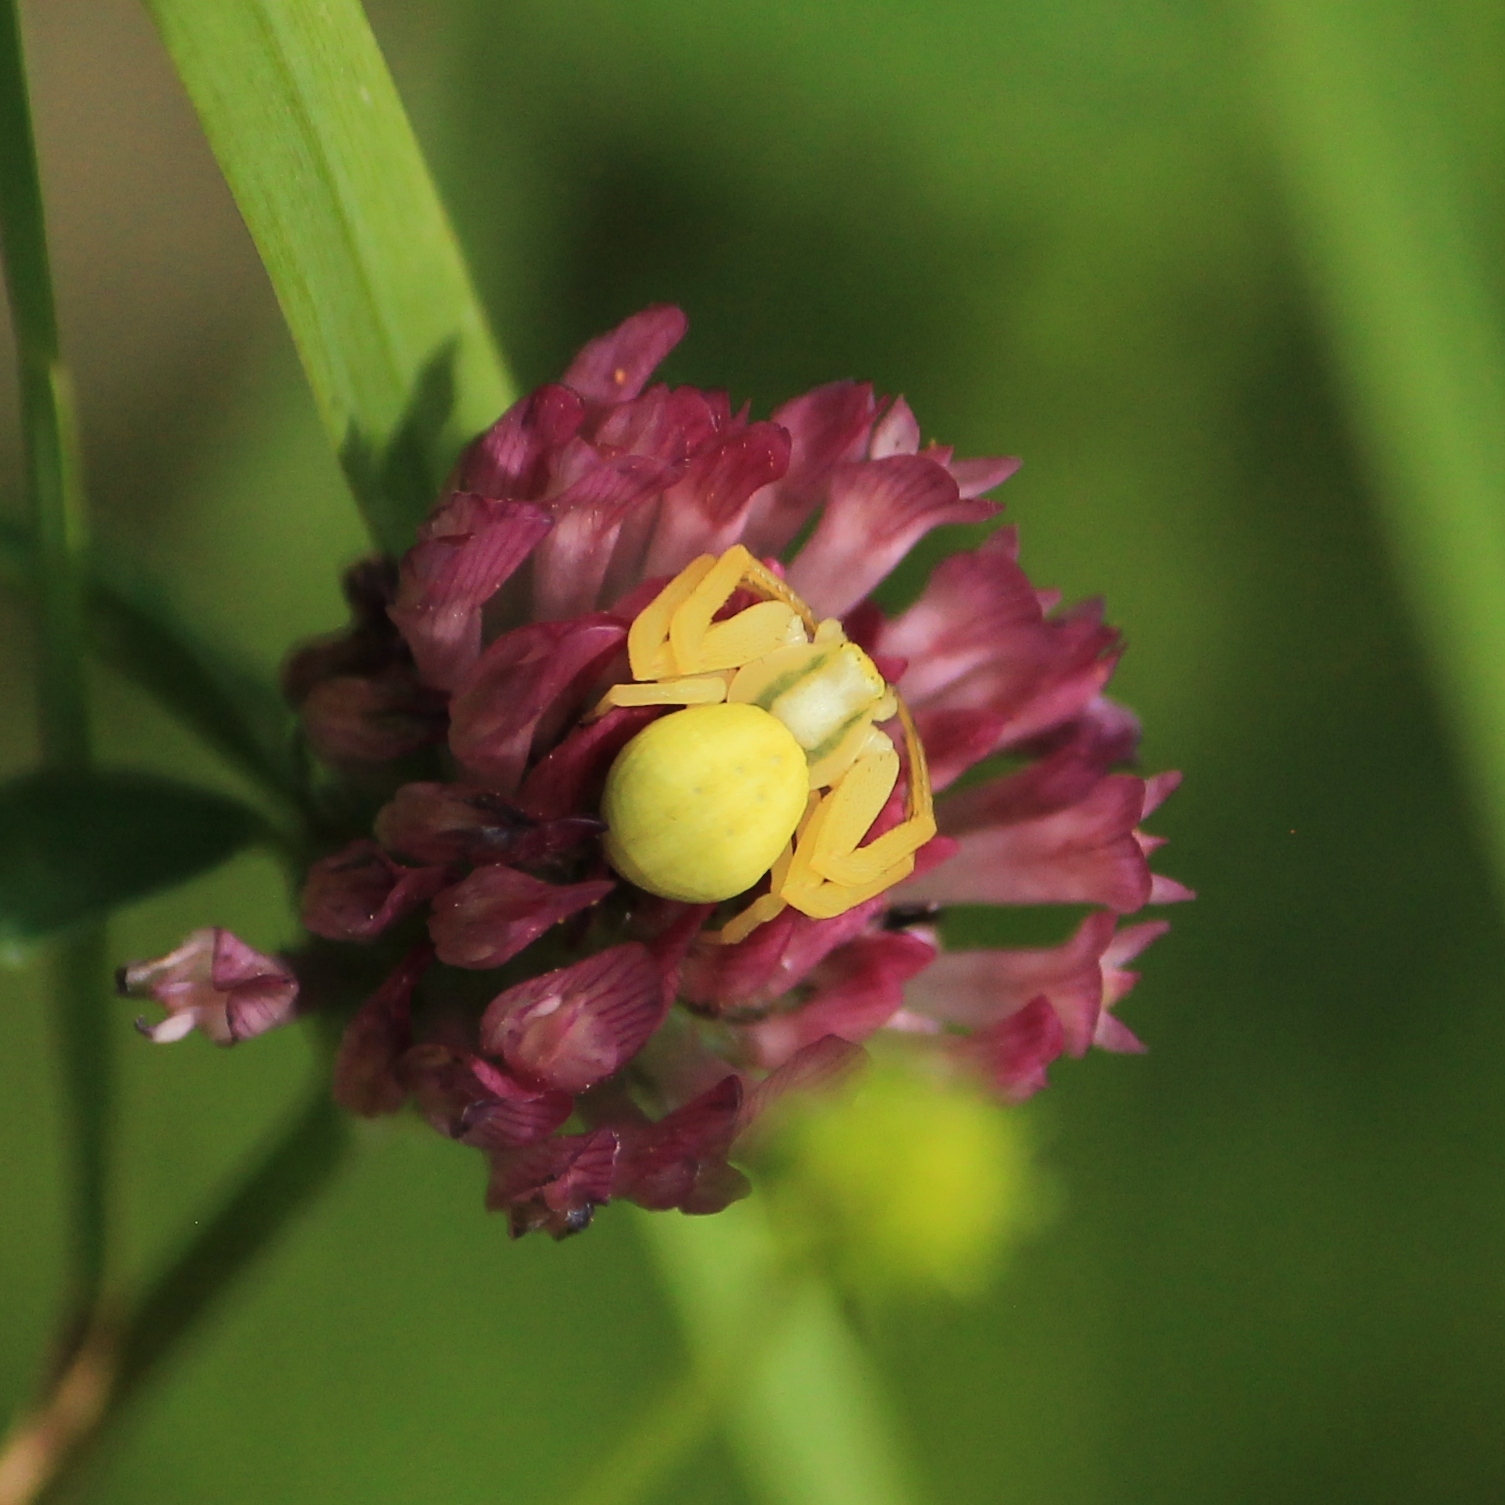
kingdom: Animalia
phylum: Arthropoda
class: Arachnida
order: Araneae
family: Thomisidae
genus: Misumena
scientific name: Misumena vatia
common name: Goldenrod crab spider
